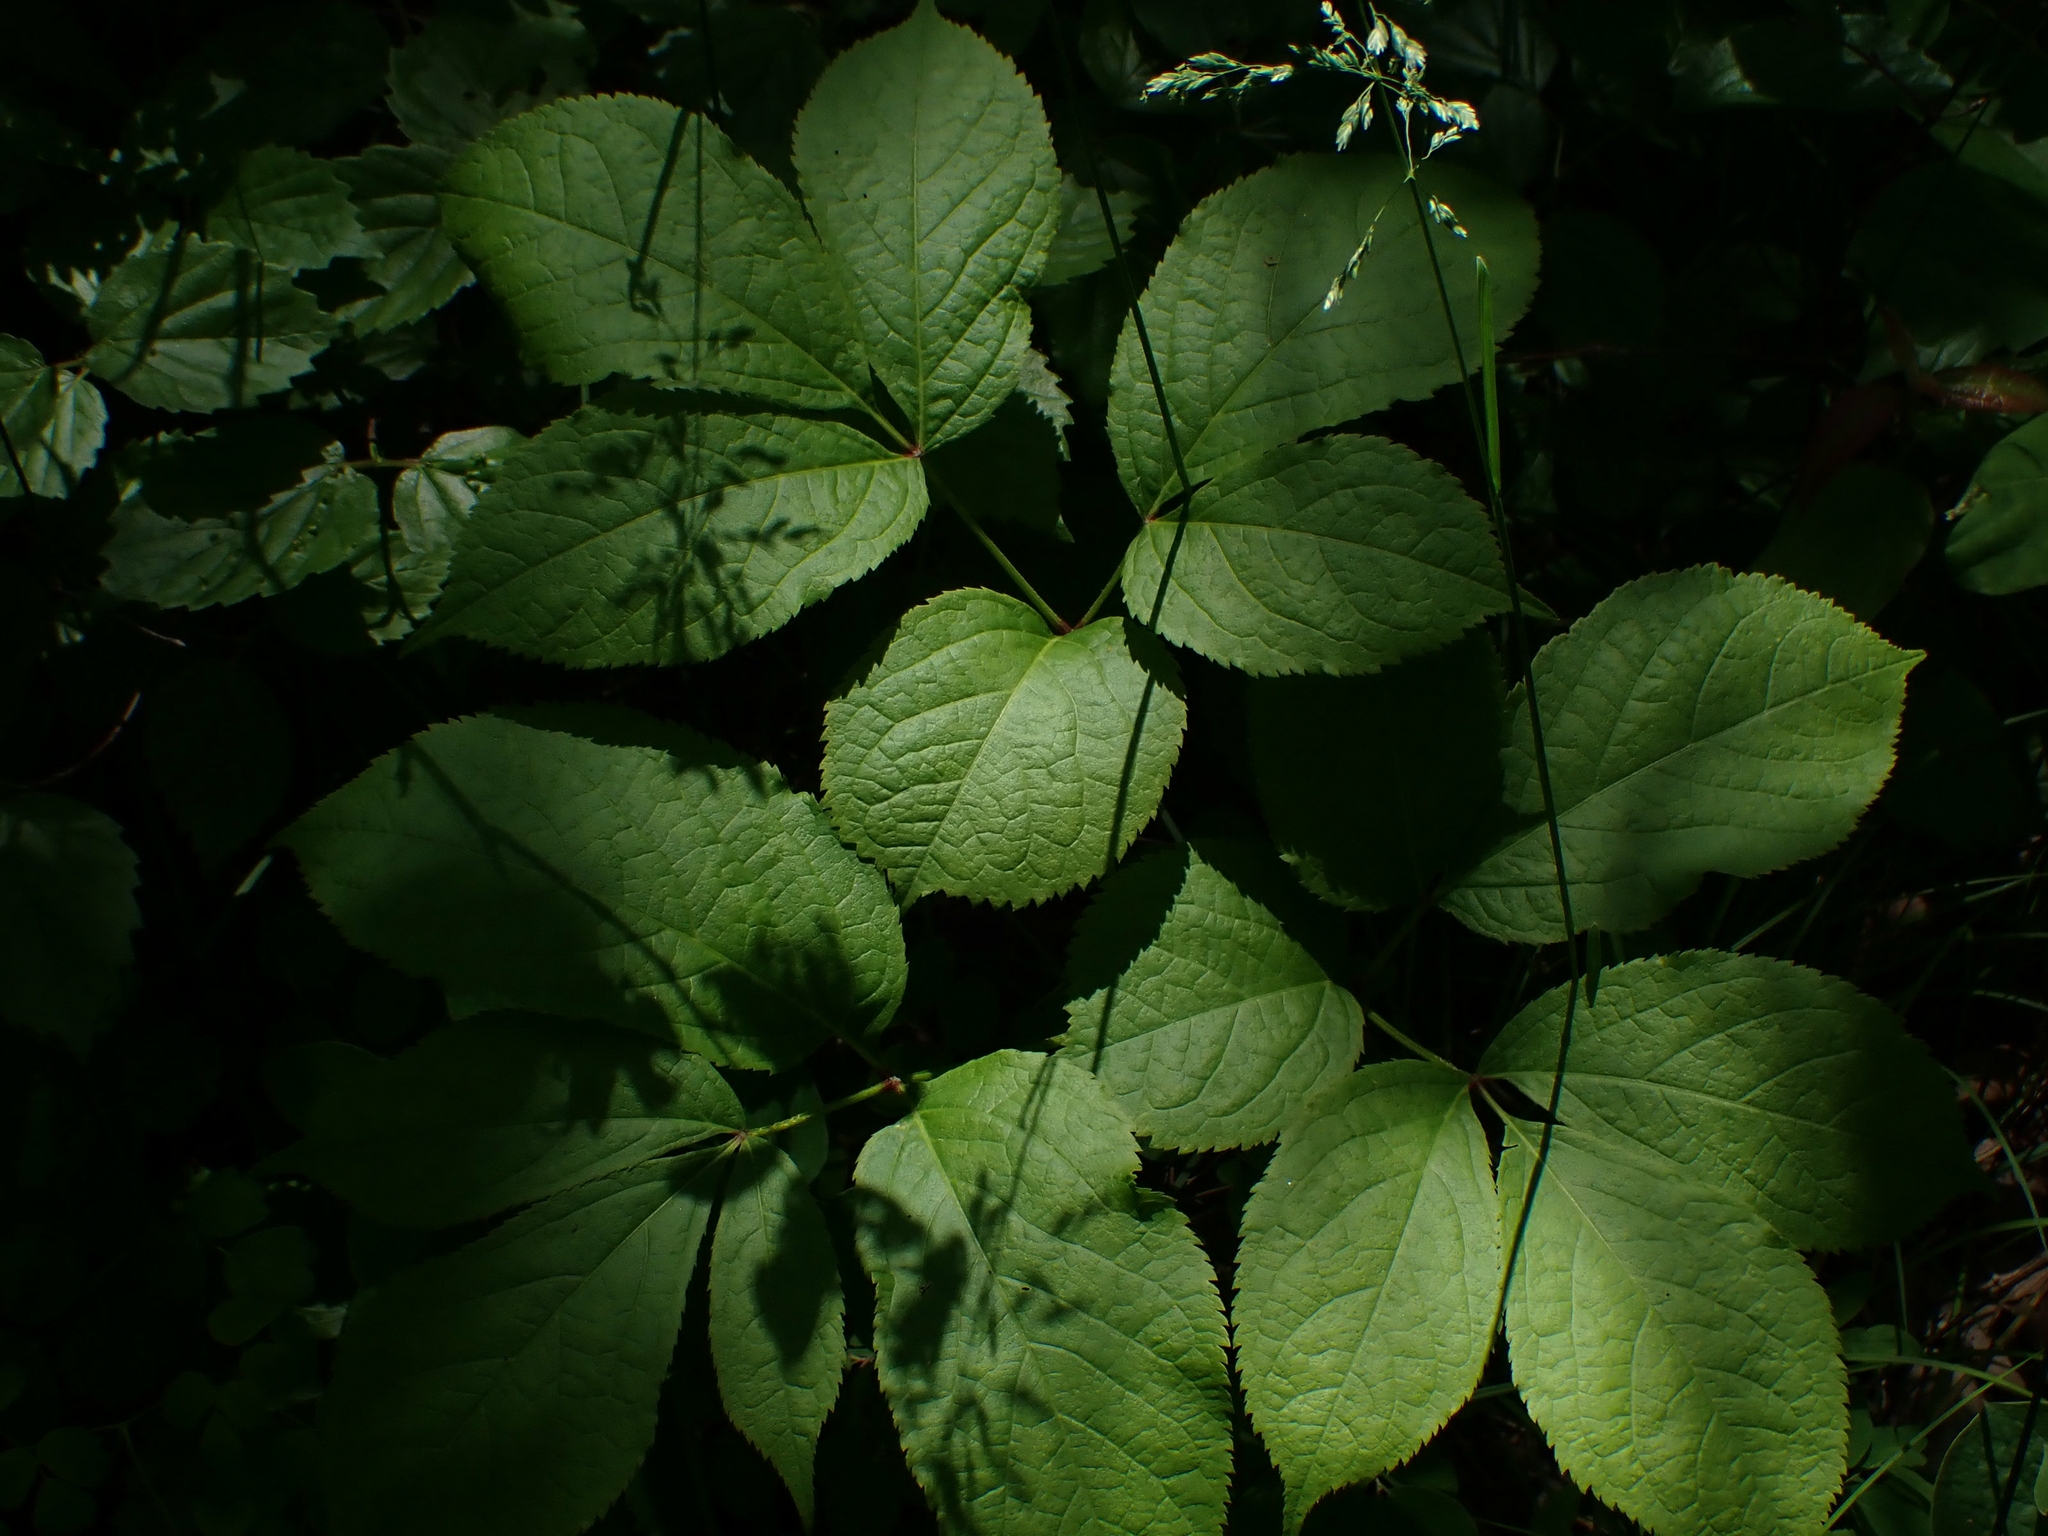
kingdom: Plantae
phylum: Tracheophyta
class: Magnoliopsida
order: Apiales
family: Araliaceae
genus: Aralia
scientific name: Aralia nudicaulis
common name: Wild sarsaparilla
